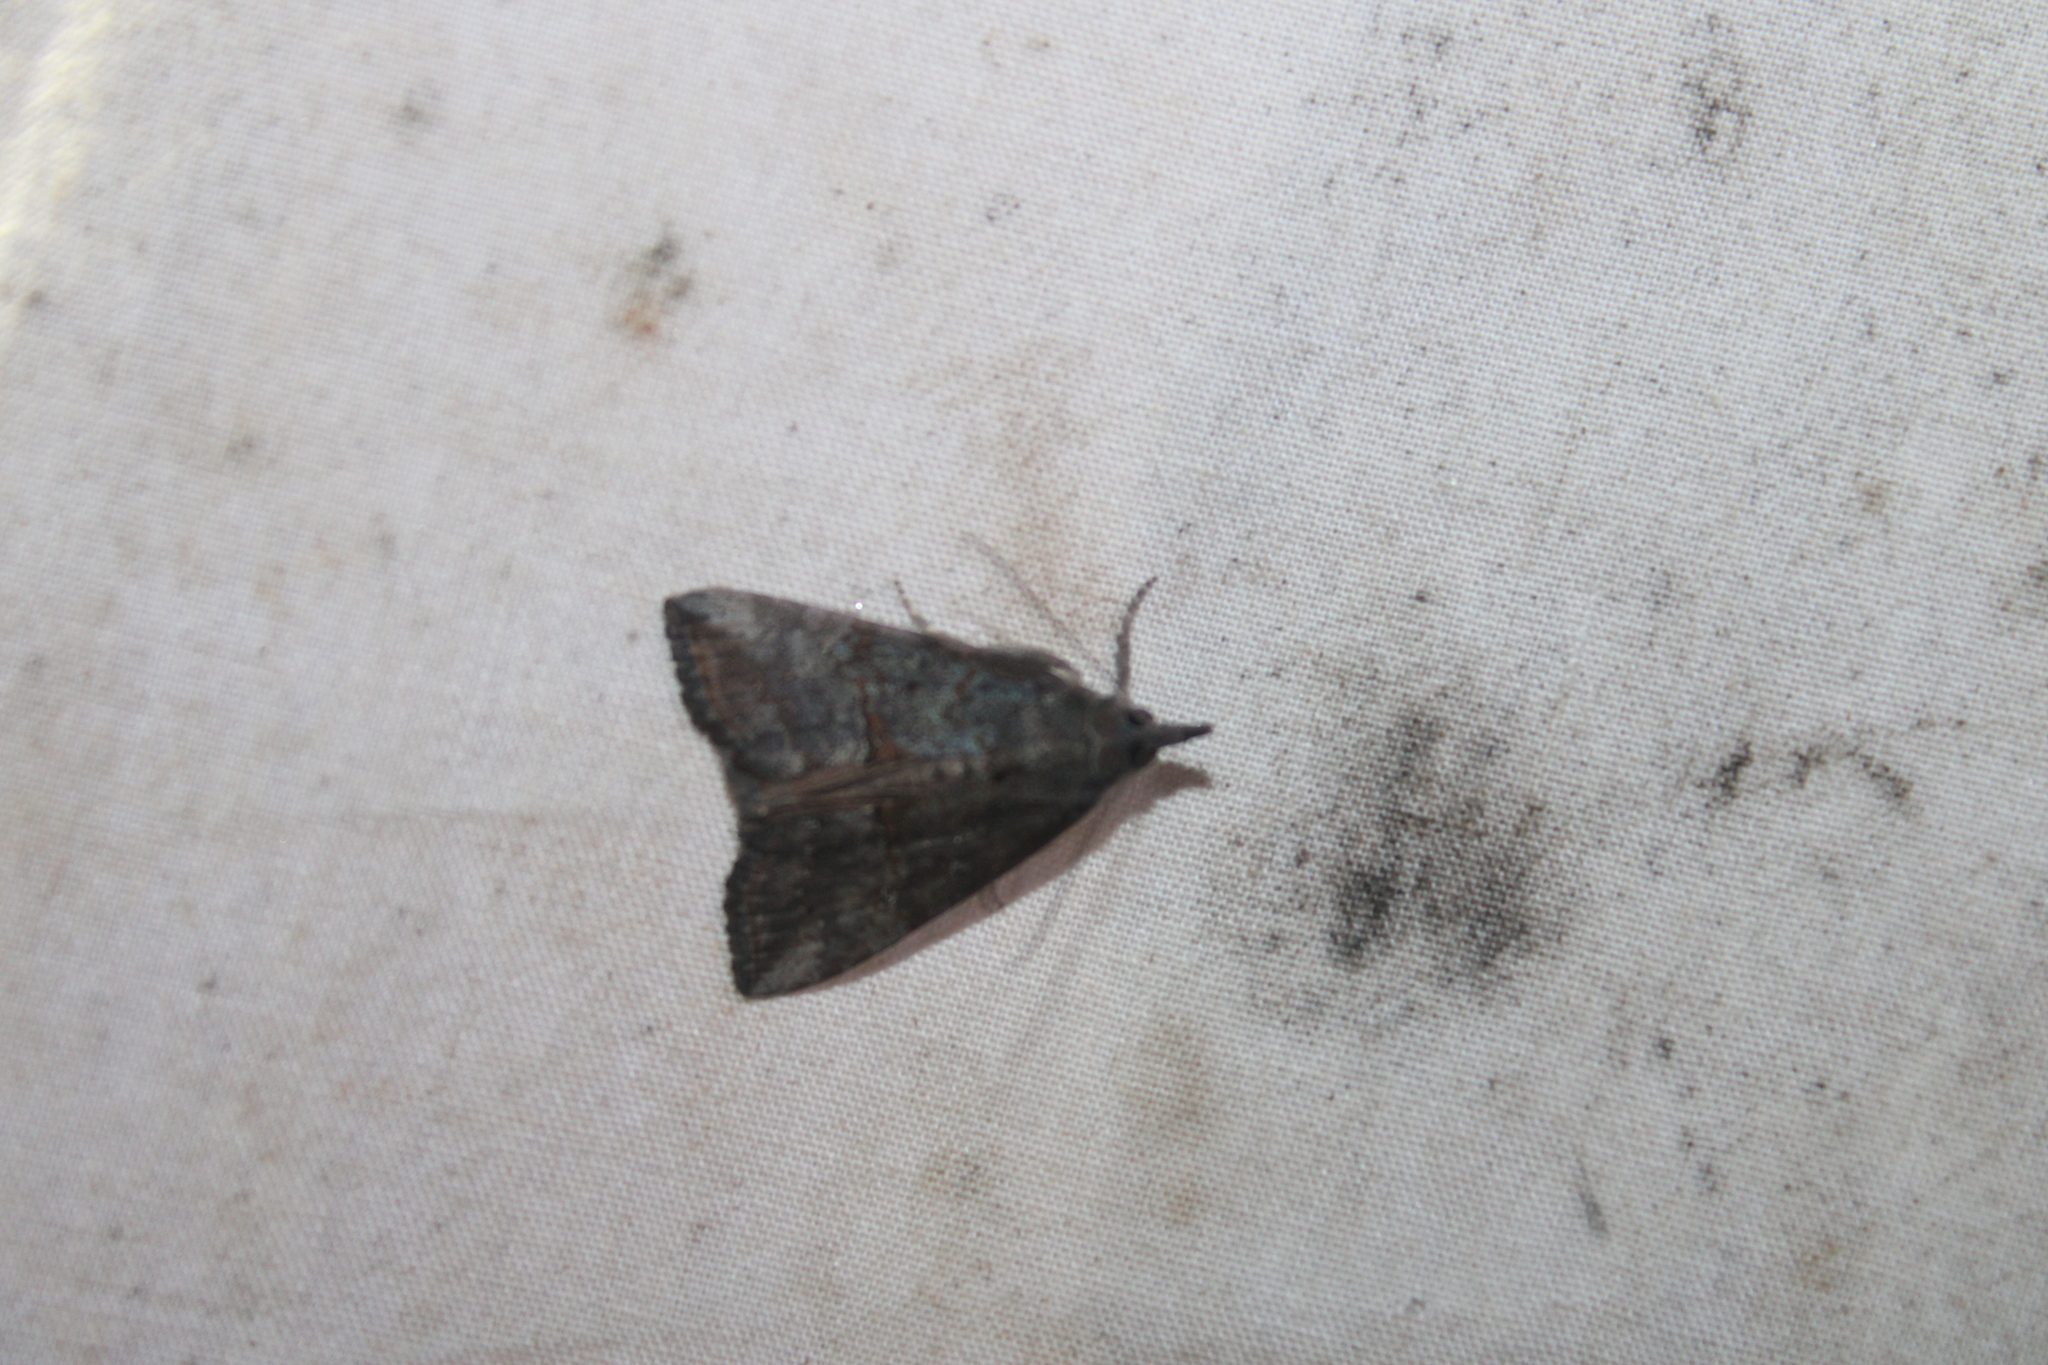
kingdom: Animalia
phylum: Arthropoda
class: Insecta
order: Lepidoptera
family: Erebidae
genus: Hypena
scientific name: Hypena scabra
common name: Green cloverworm
